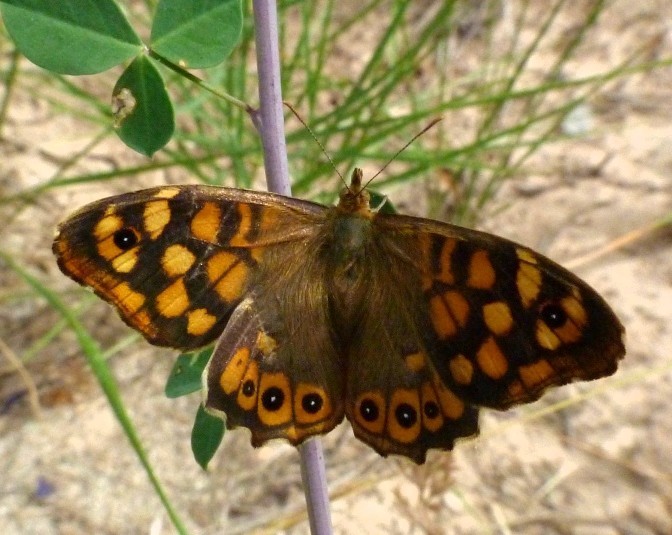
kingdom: Animalia
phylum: Arthropoda
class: Insecta
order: Lepidoptera
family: Nymphalidae
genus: Pararge
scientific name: Pararge aegeria
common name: Speckled wood
